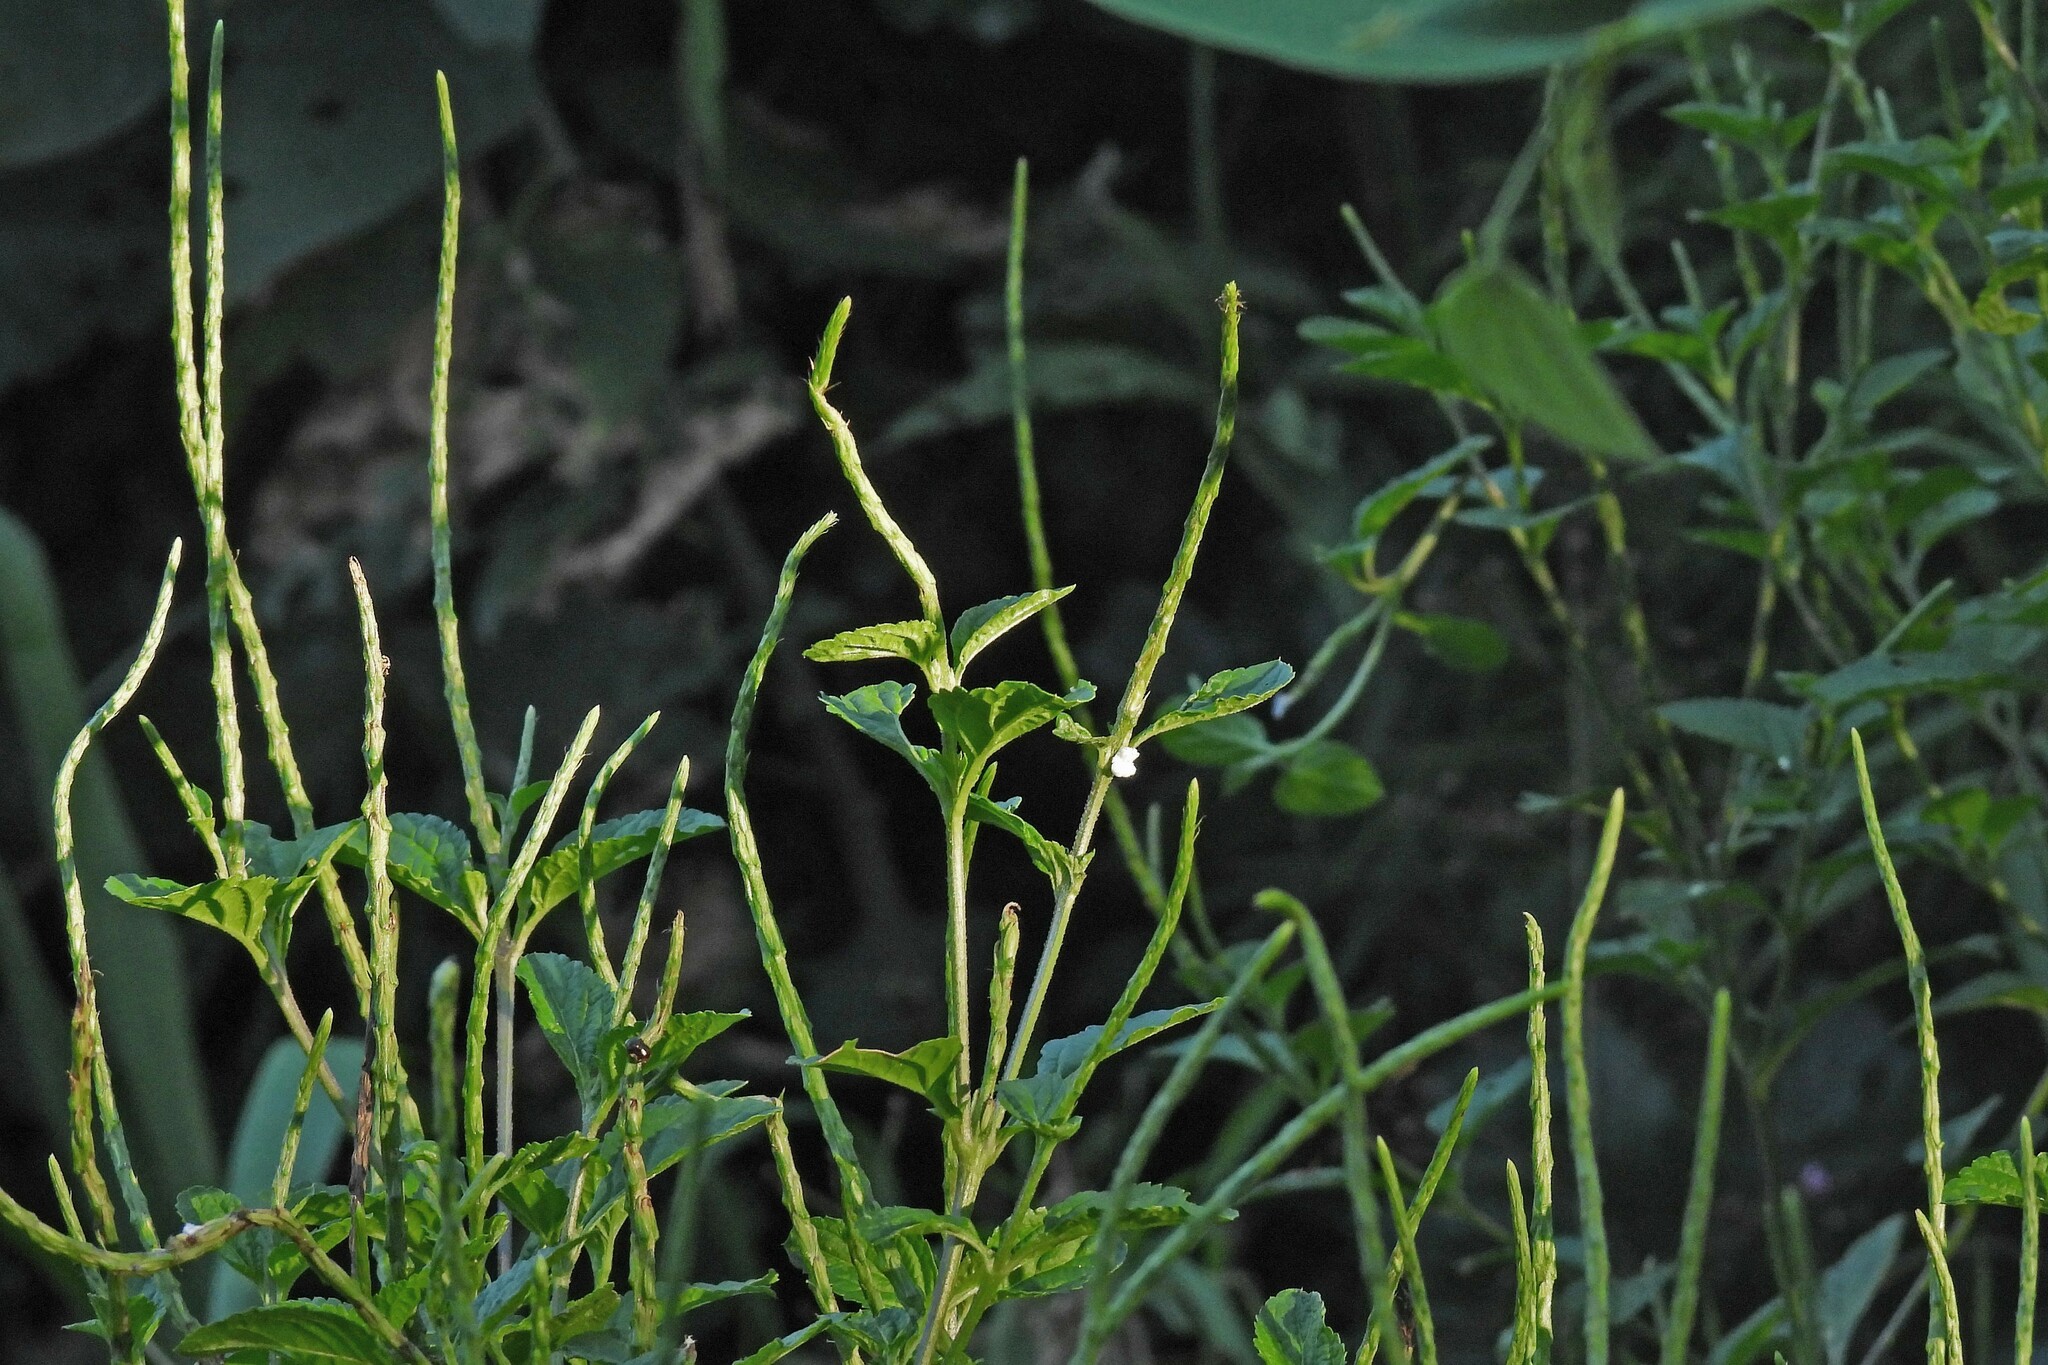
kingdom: Plantae
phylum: Tracheophyta
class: Magnoliopsida
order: Lamiales
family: Verbenaceae
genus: Stachytarpheta
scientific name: Stachytarpheta cayennensis
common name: Cayenne porterweed
